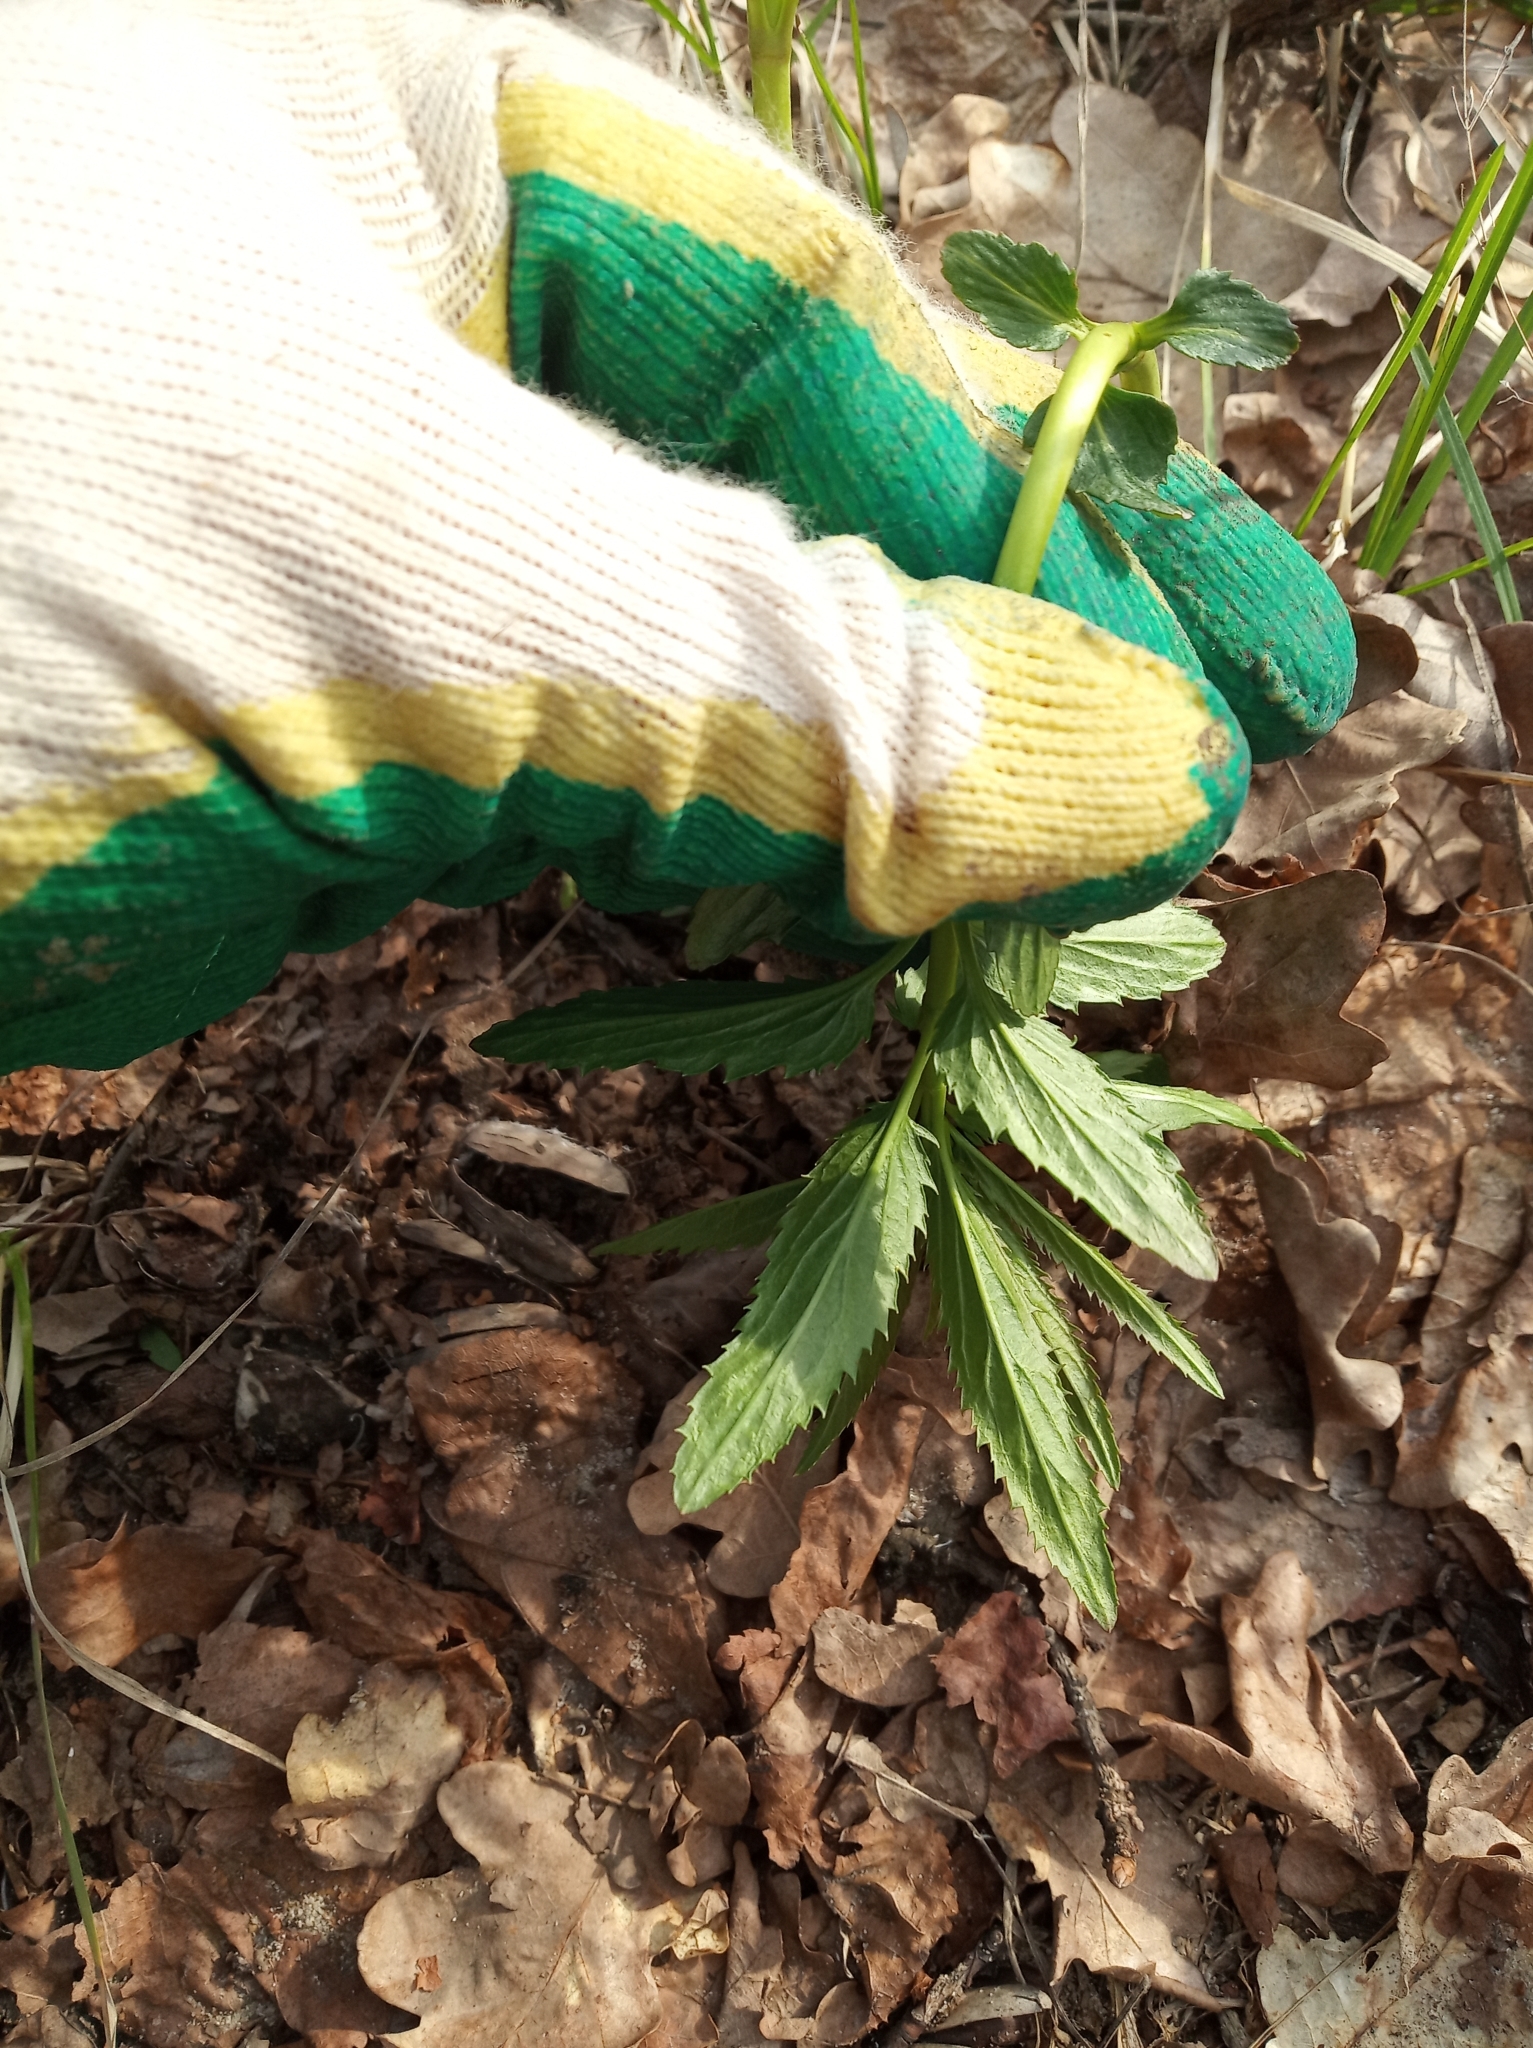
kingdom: Plantae
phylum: Tracheophyta
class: Magnoliopsida
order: Lamiales
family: Plantaginaceae
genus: Veronica
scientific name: Veronica longifolia
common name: Garden speedwell
